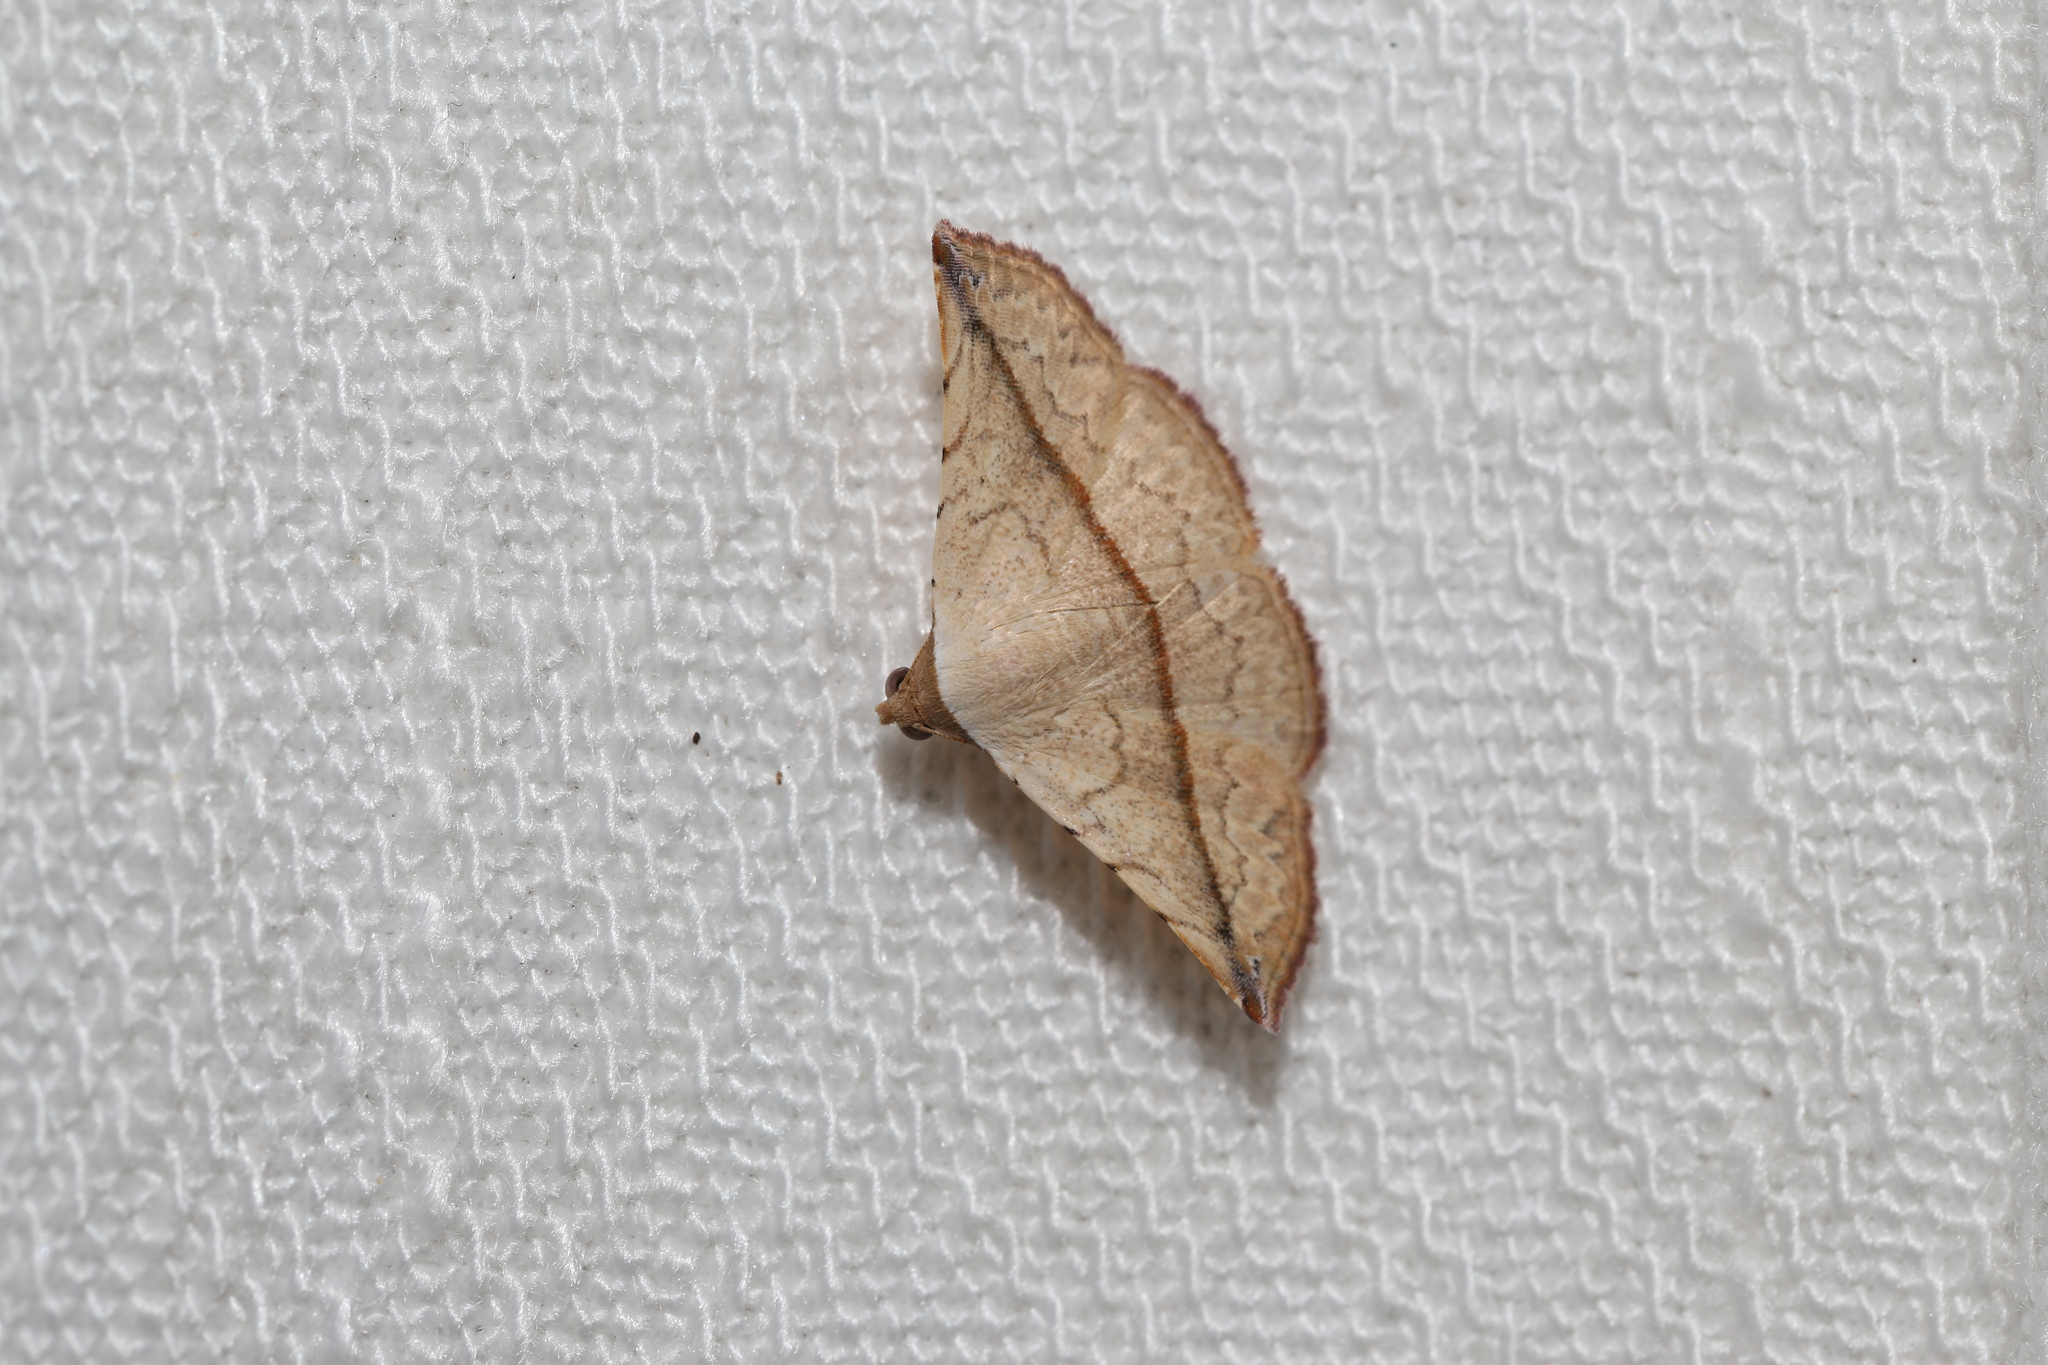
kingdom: Animalia
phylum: Arthropoda
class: Insecta
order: Lepidoptera
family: Noctuidae
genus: Eublemma
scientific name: Eublemma perversicolor
